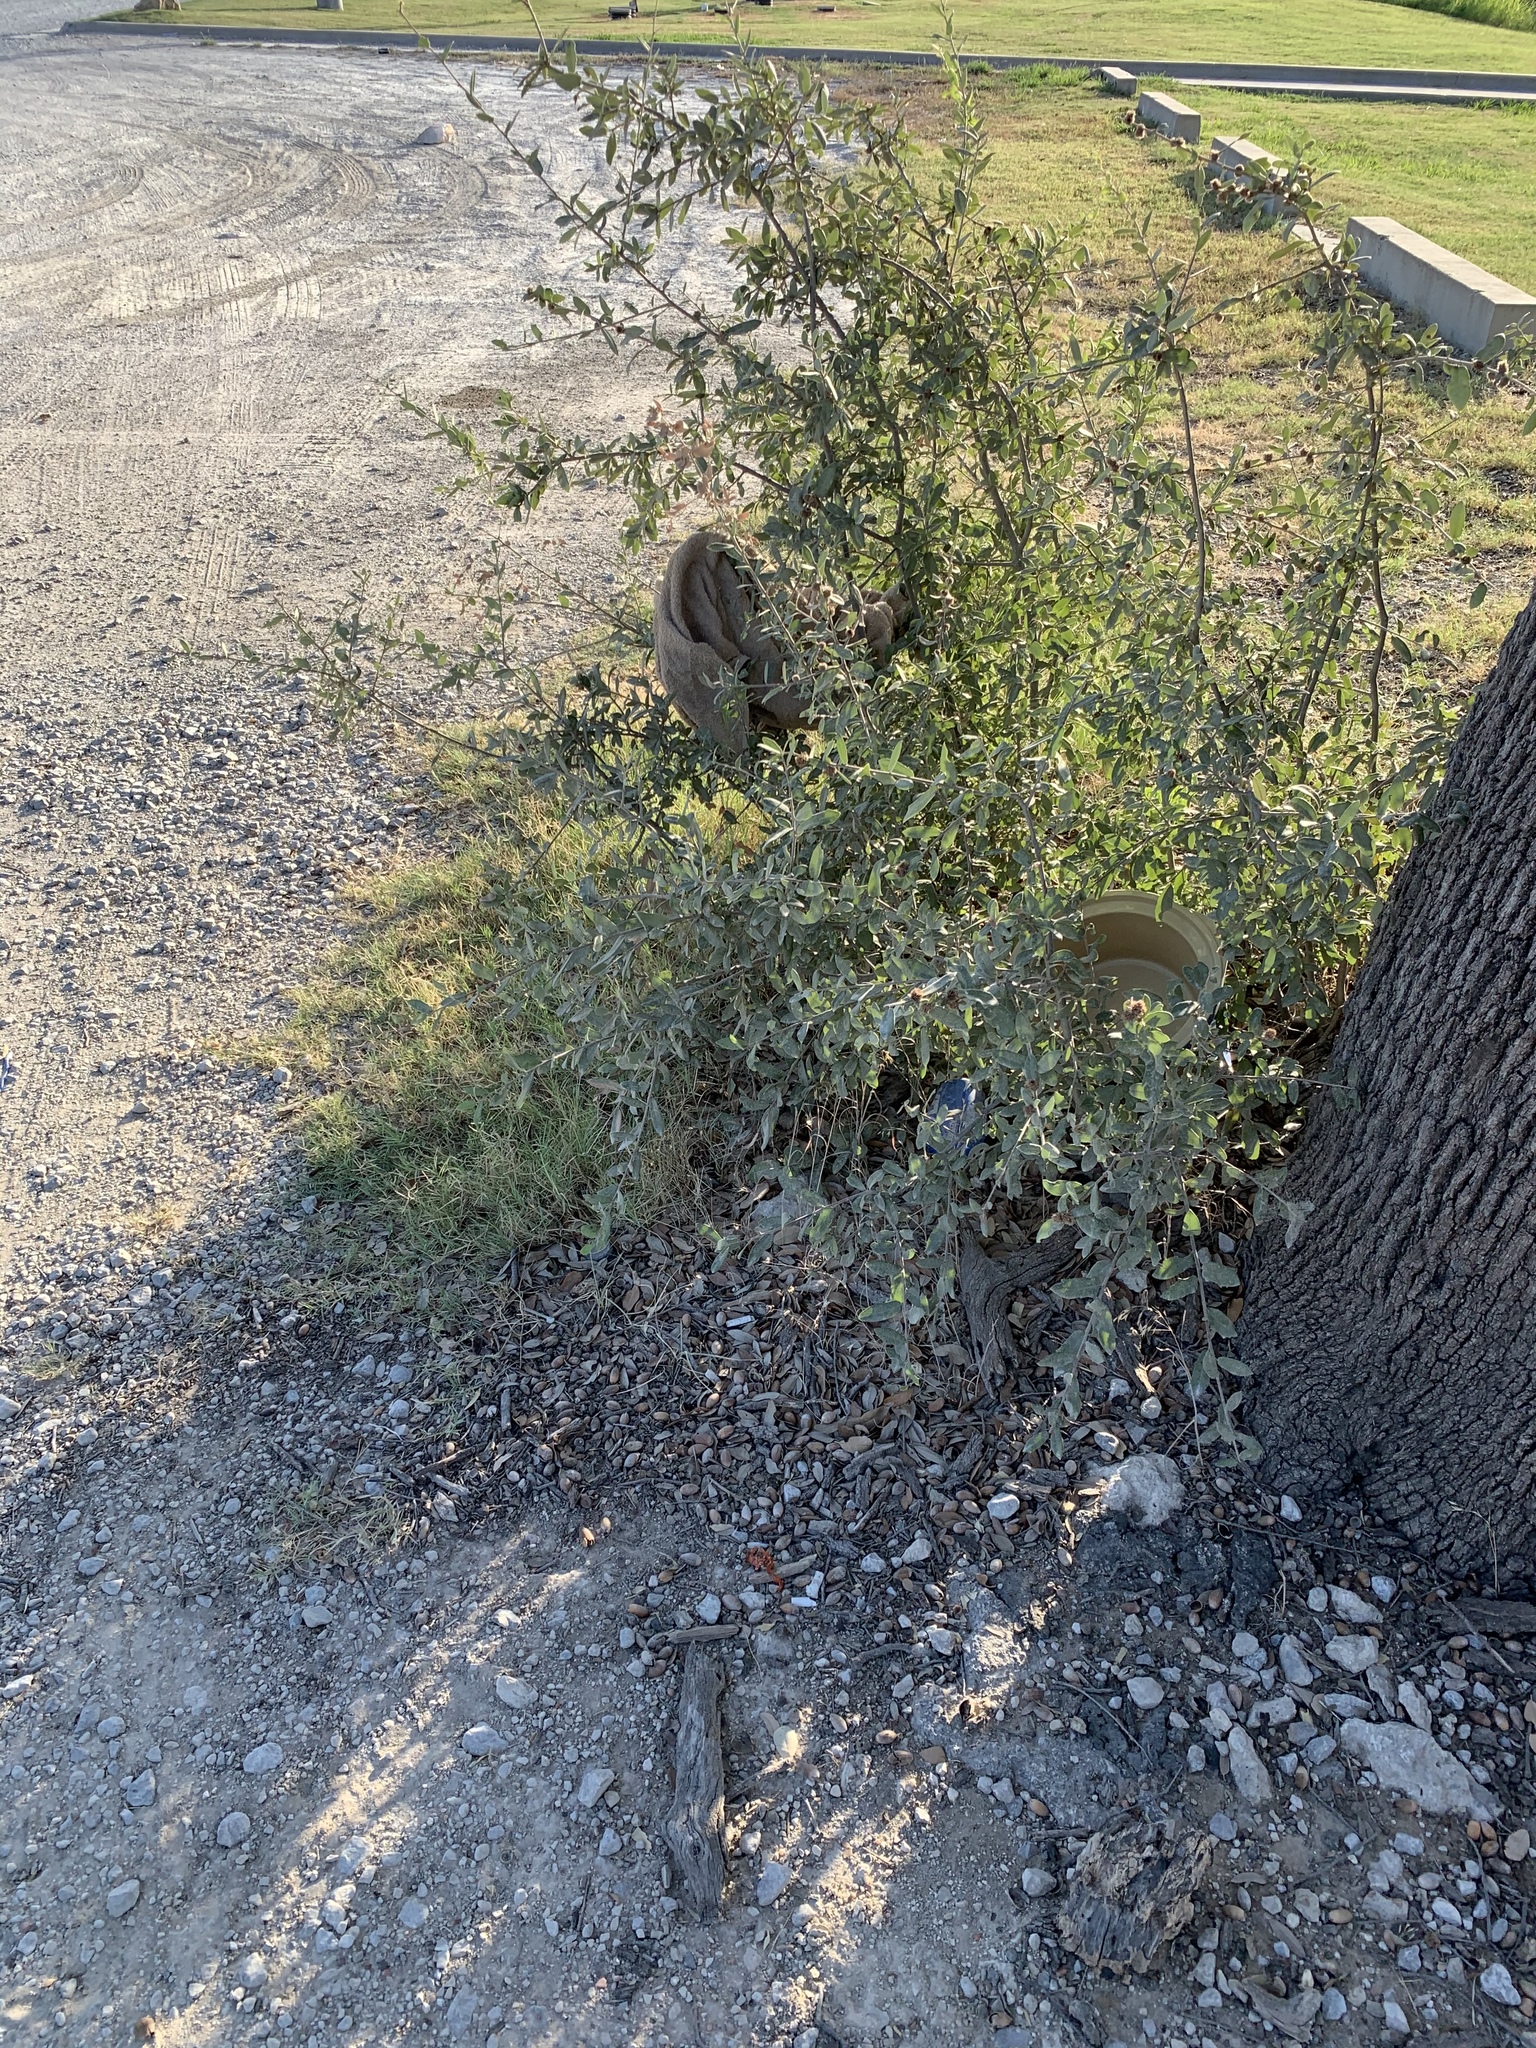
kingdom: Plantae
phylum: Tracheophyta
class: Magnoliopsida
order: Fagales
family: Fagaceae
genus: Quercus
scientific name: Quercus fusiformis
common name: Texas live oak
